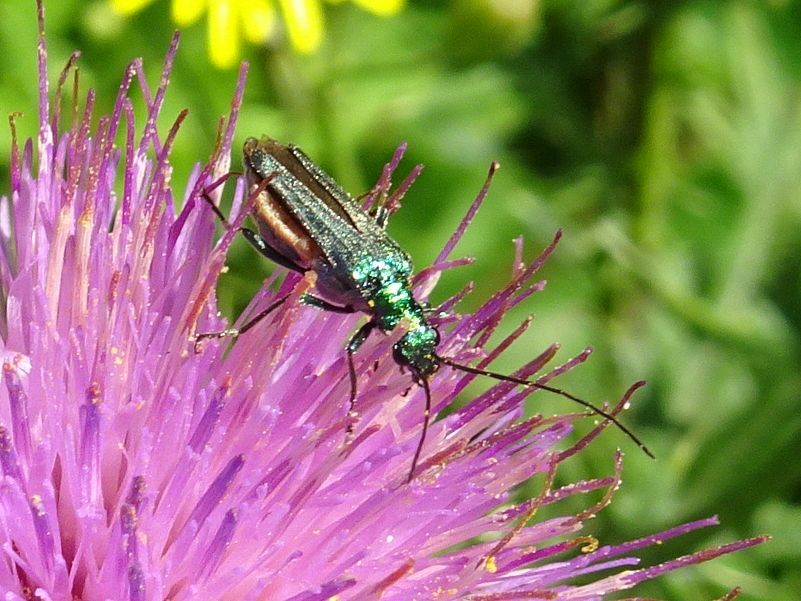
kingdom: Animalia
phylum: Arthropoda
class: Insecta
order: Coleoptera
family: Oedemeridae
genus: Oedemera
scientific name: Oedemera nobilis
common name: Swollen-thighed beetle
